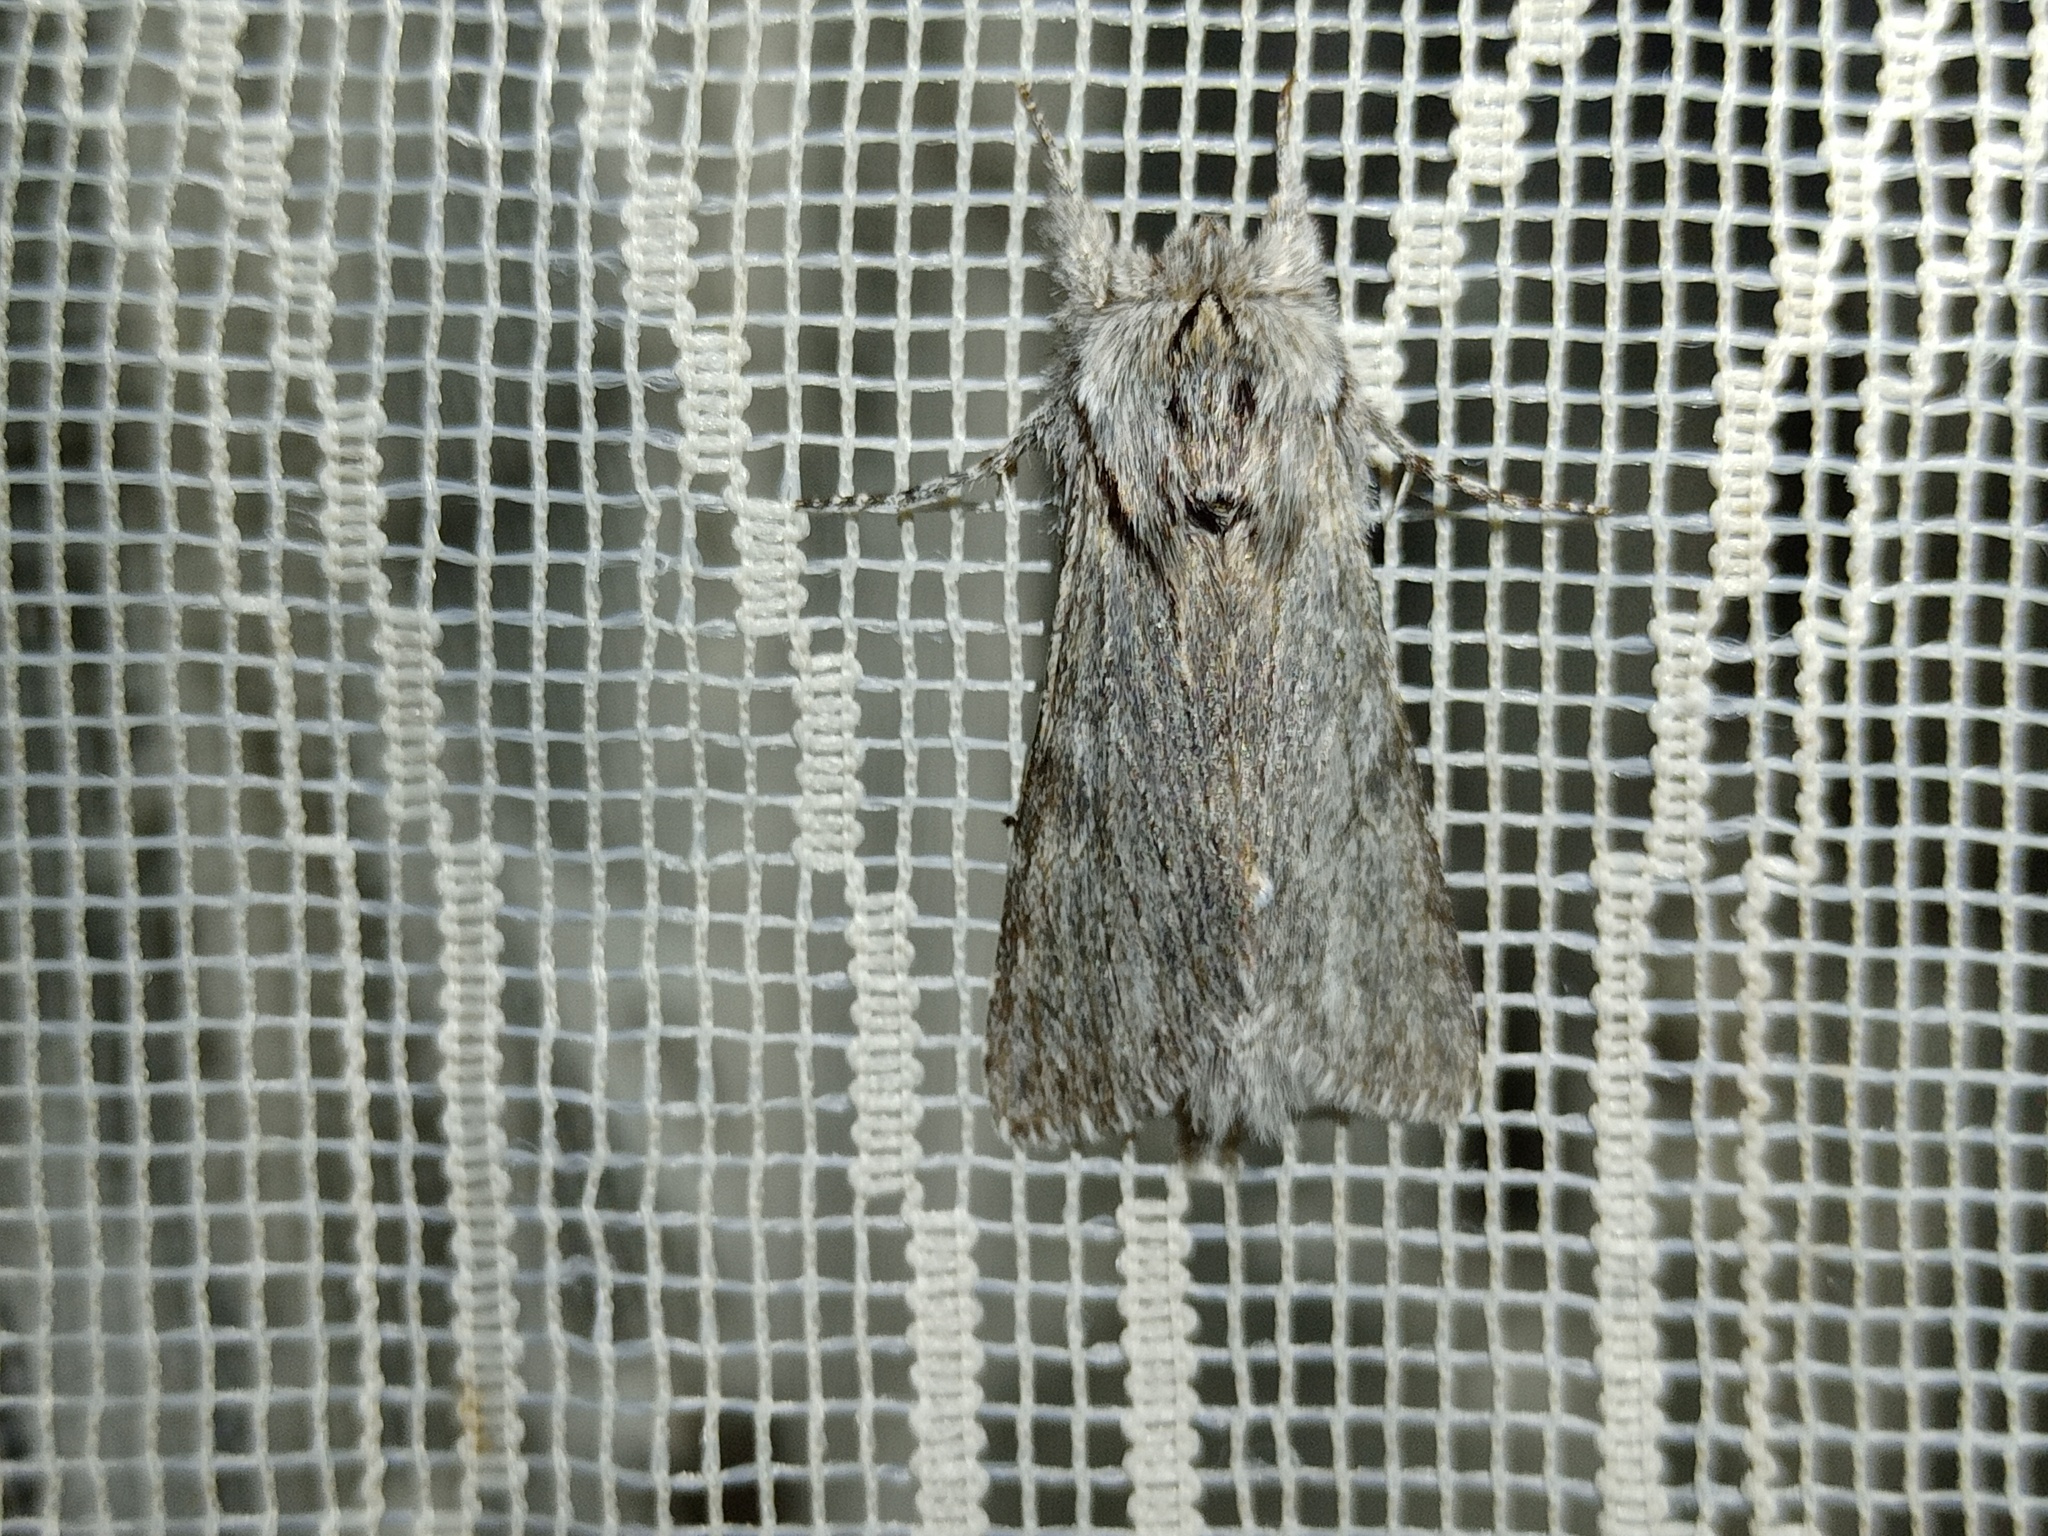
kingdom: Animalia
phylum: Arthropoda
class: Insecta
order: Lepidoptera
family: Notodontidae
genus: Dicranura
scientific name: Dicranura ulmi
